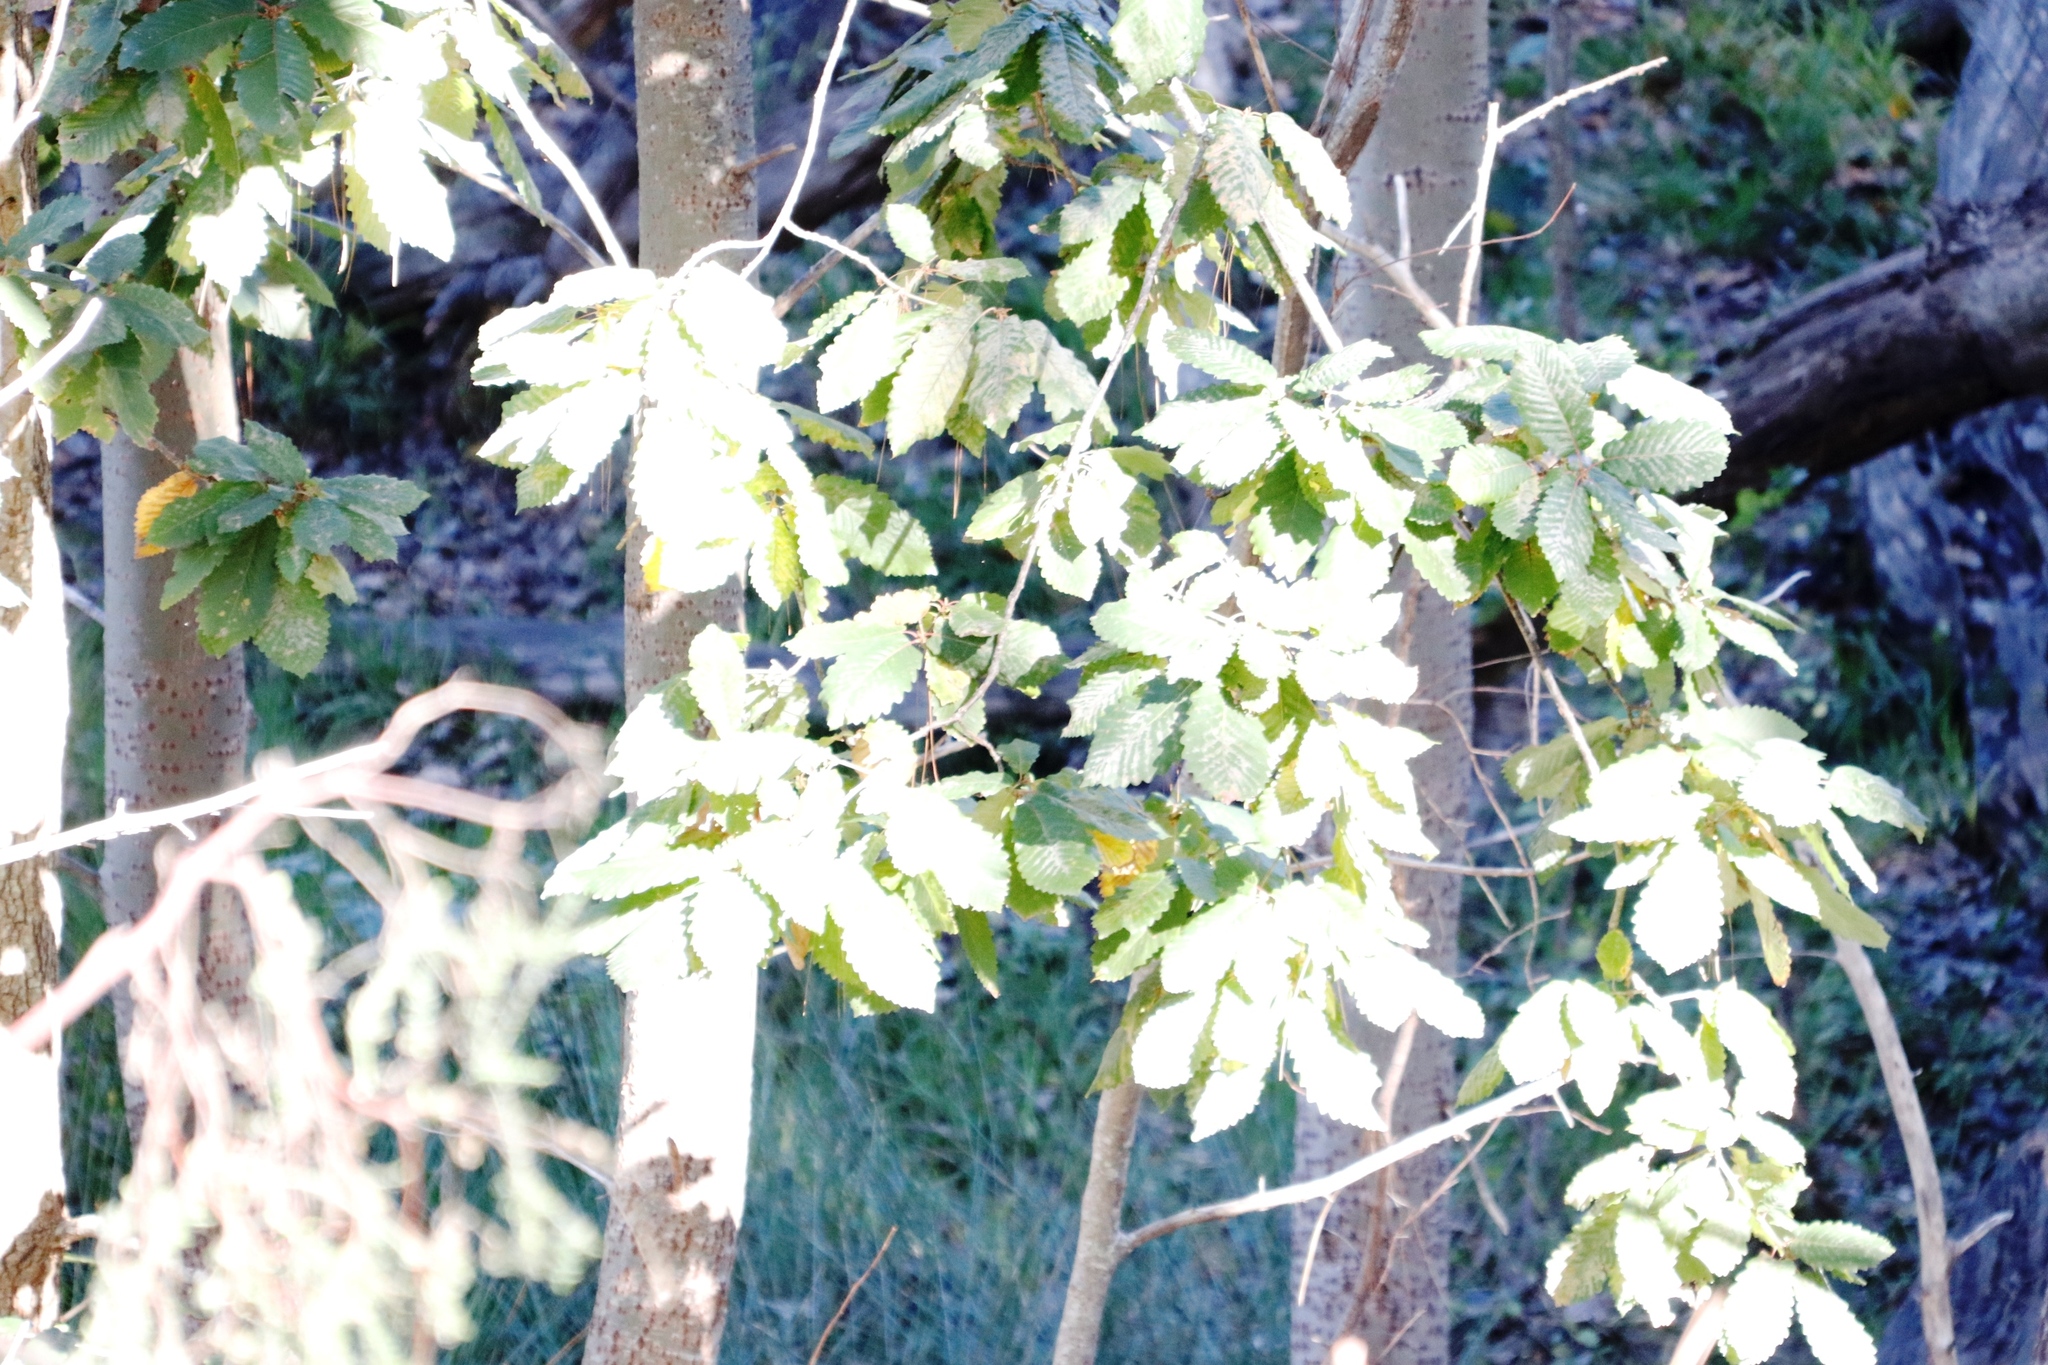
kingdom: Plantae
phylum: Tracheophyta
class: Magnoliopsida
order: Fagales
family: Fagaceae
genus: Quercus
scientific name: Quercus canariensis
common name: Algerian oak
